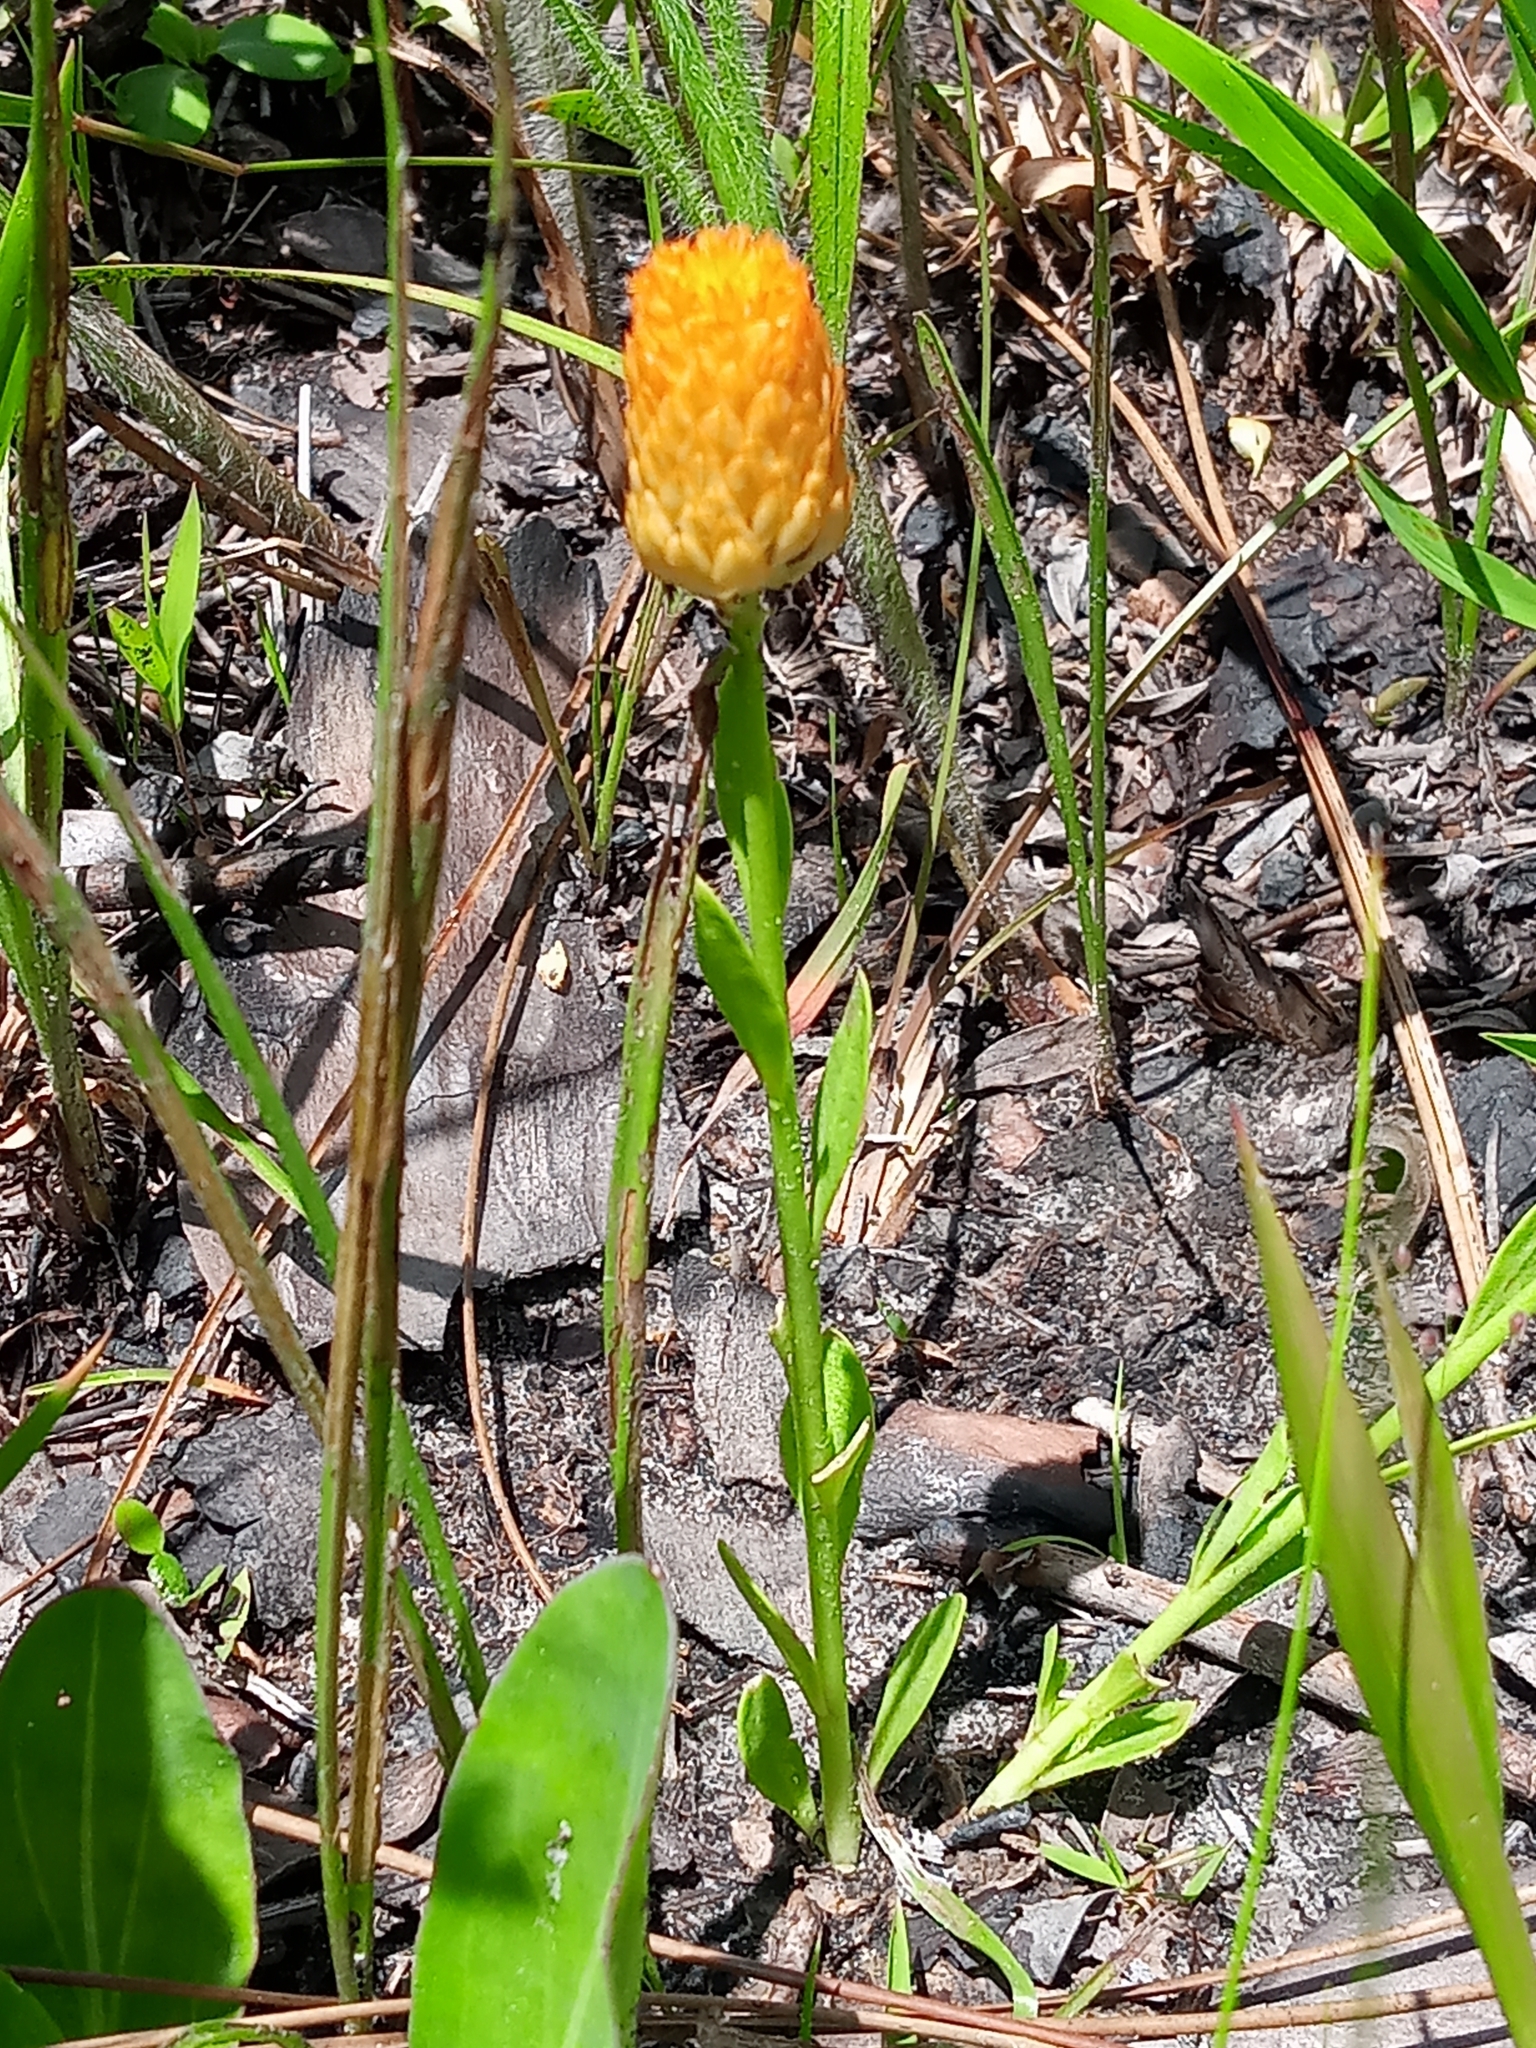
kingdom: Plantae
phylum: Tracheophyta
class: Magnoliopsida
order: Fabales
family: Polygalaceae
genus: Polygala
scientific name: Polygala lutea
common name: Orange milkwort
